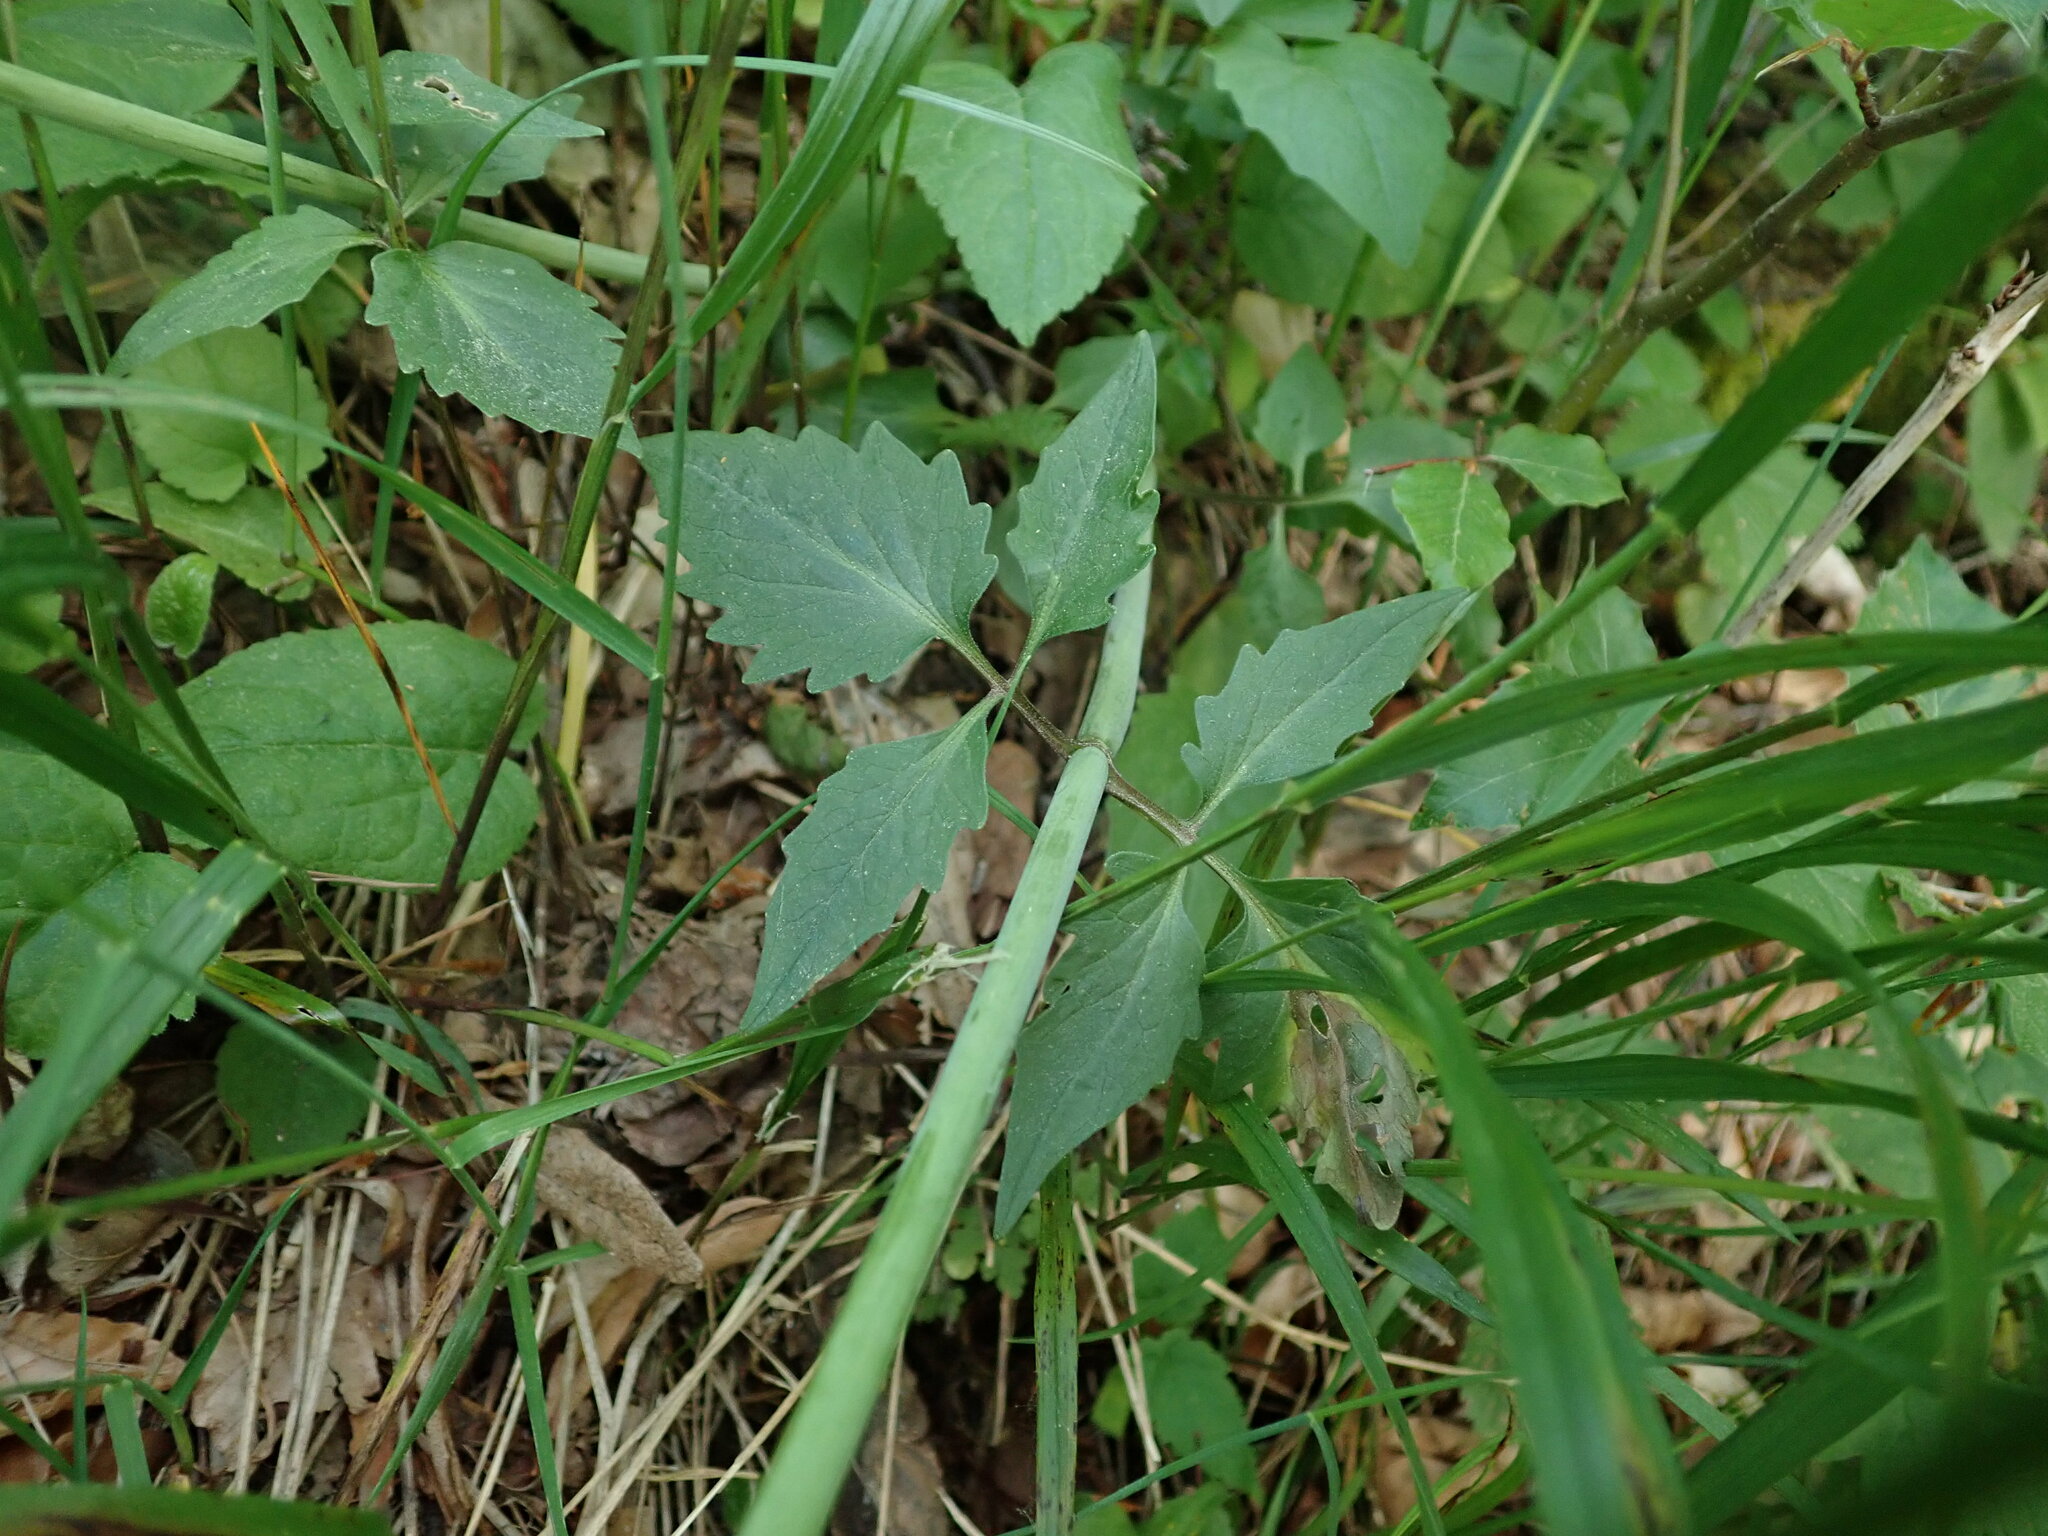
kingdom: Plantae
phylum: Tracheophyta
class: Magnoliopsida
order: Dipsacales
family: Caprifoliaceae
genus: Valeriana
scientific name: Valeriana tripteris
